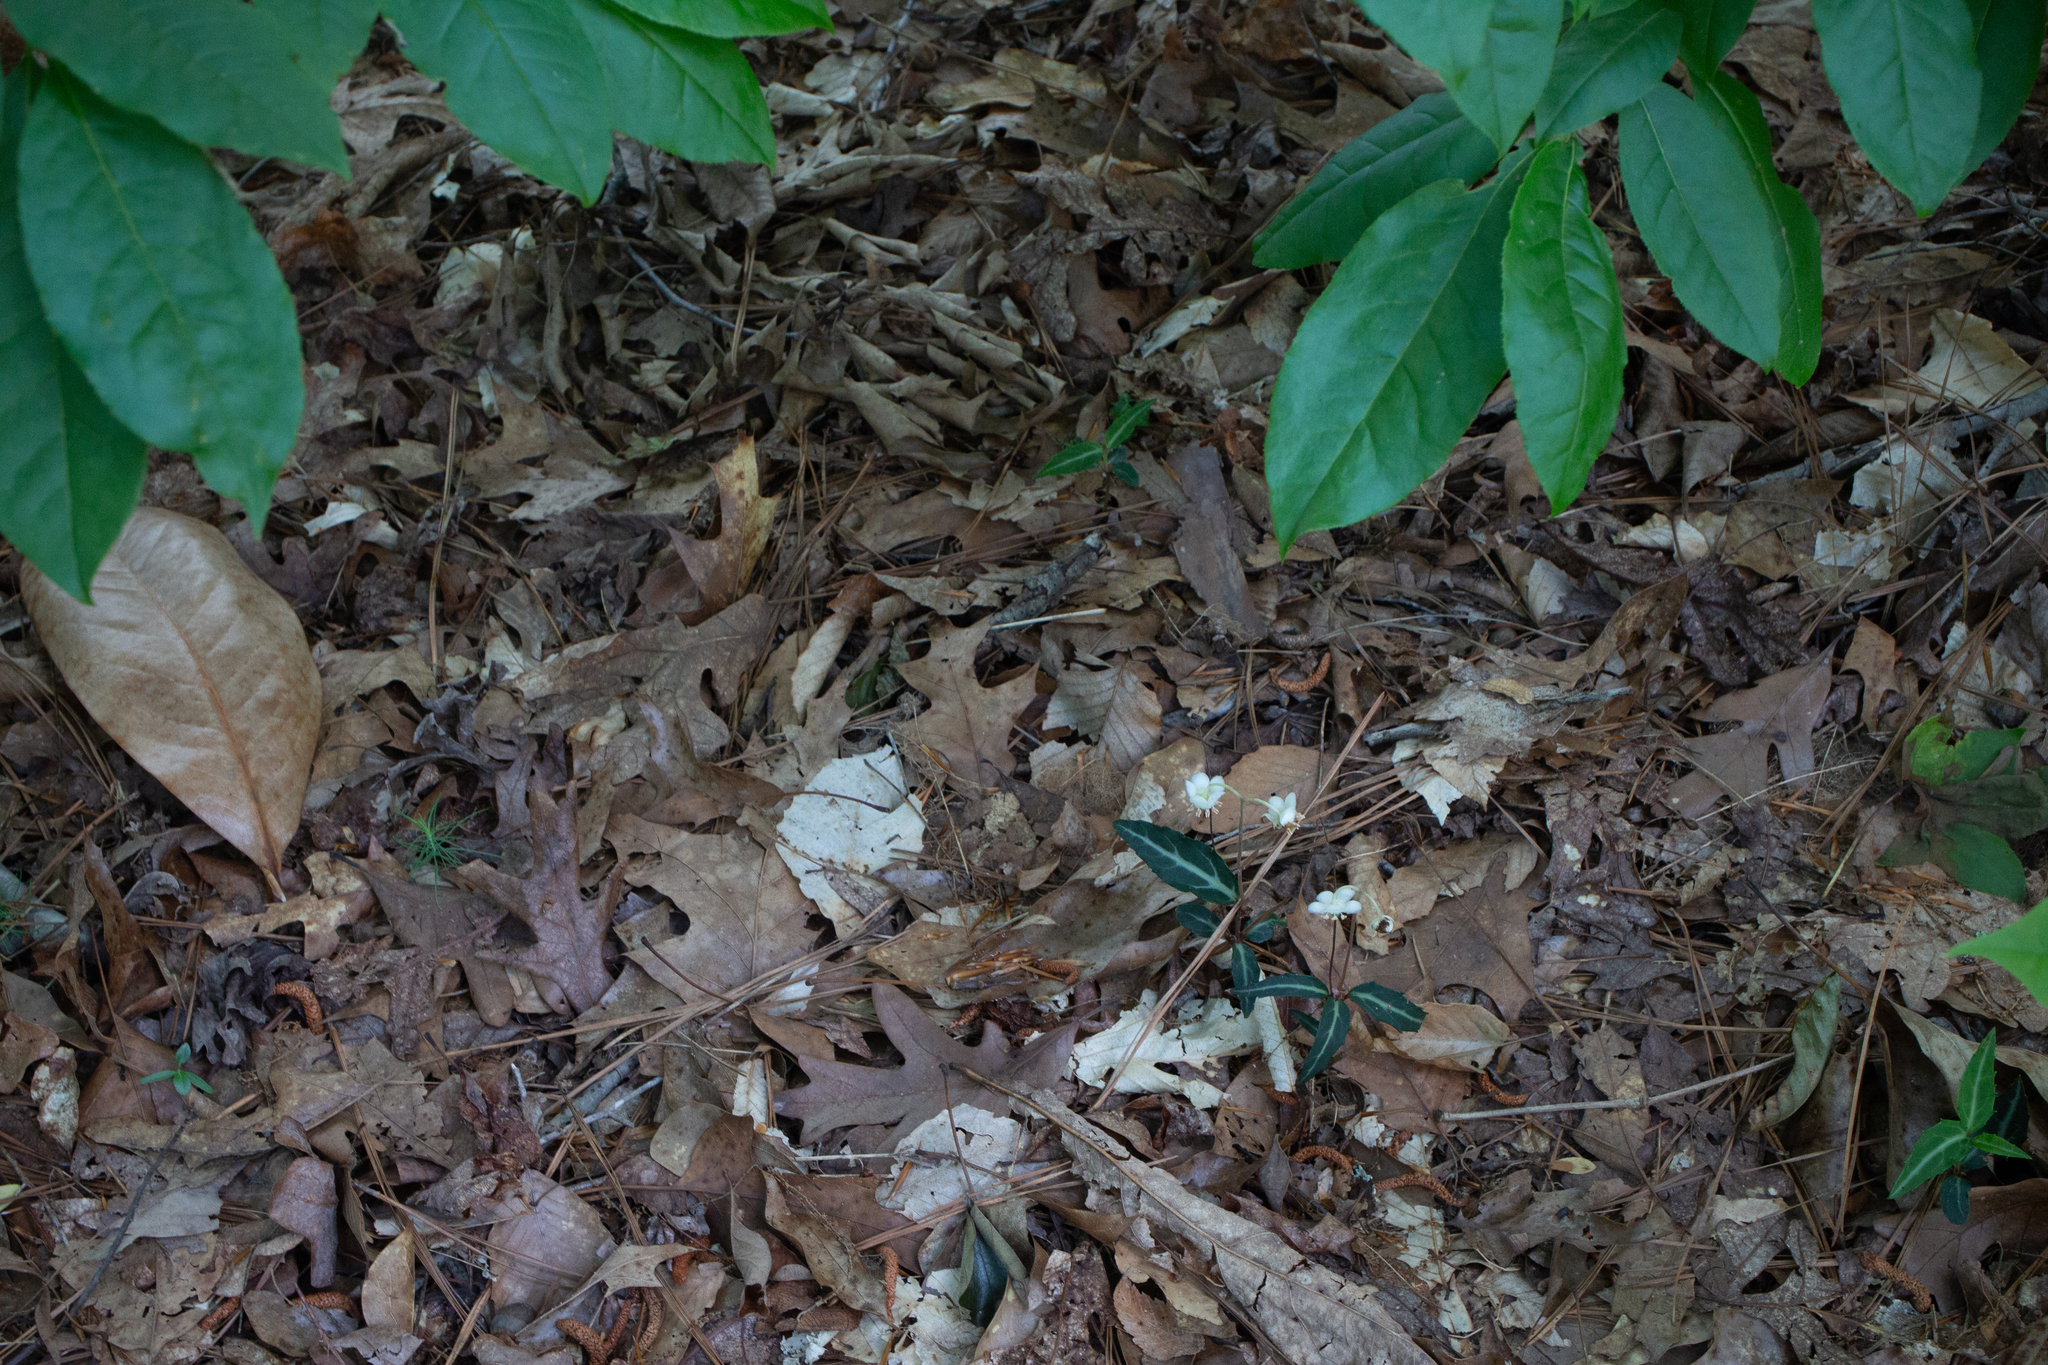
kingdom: Plantae
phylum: Tracheophyta
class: Magnoliopsida
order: Ericales
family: Ericaceae
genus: Chimaphila
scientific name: Chimaphila maculata
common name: Spotted pipsissewa
